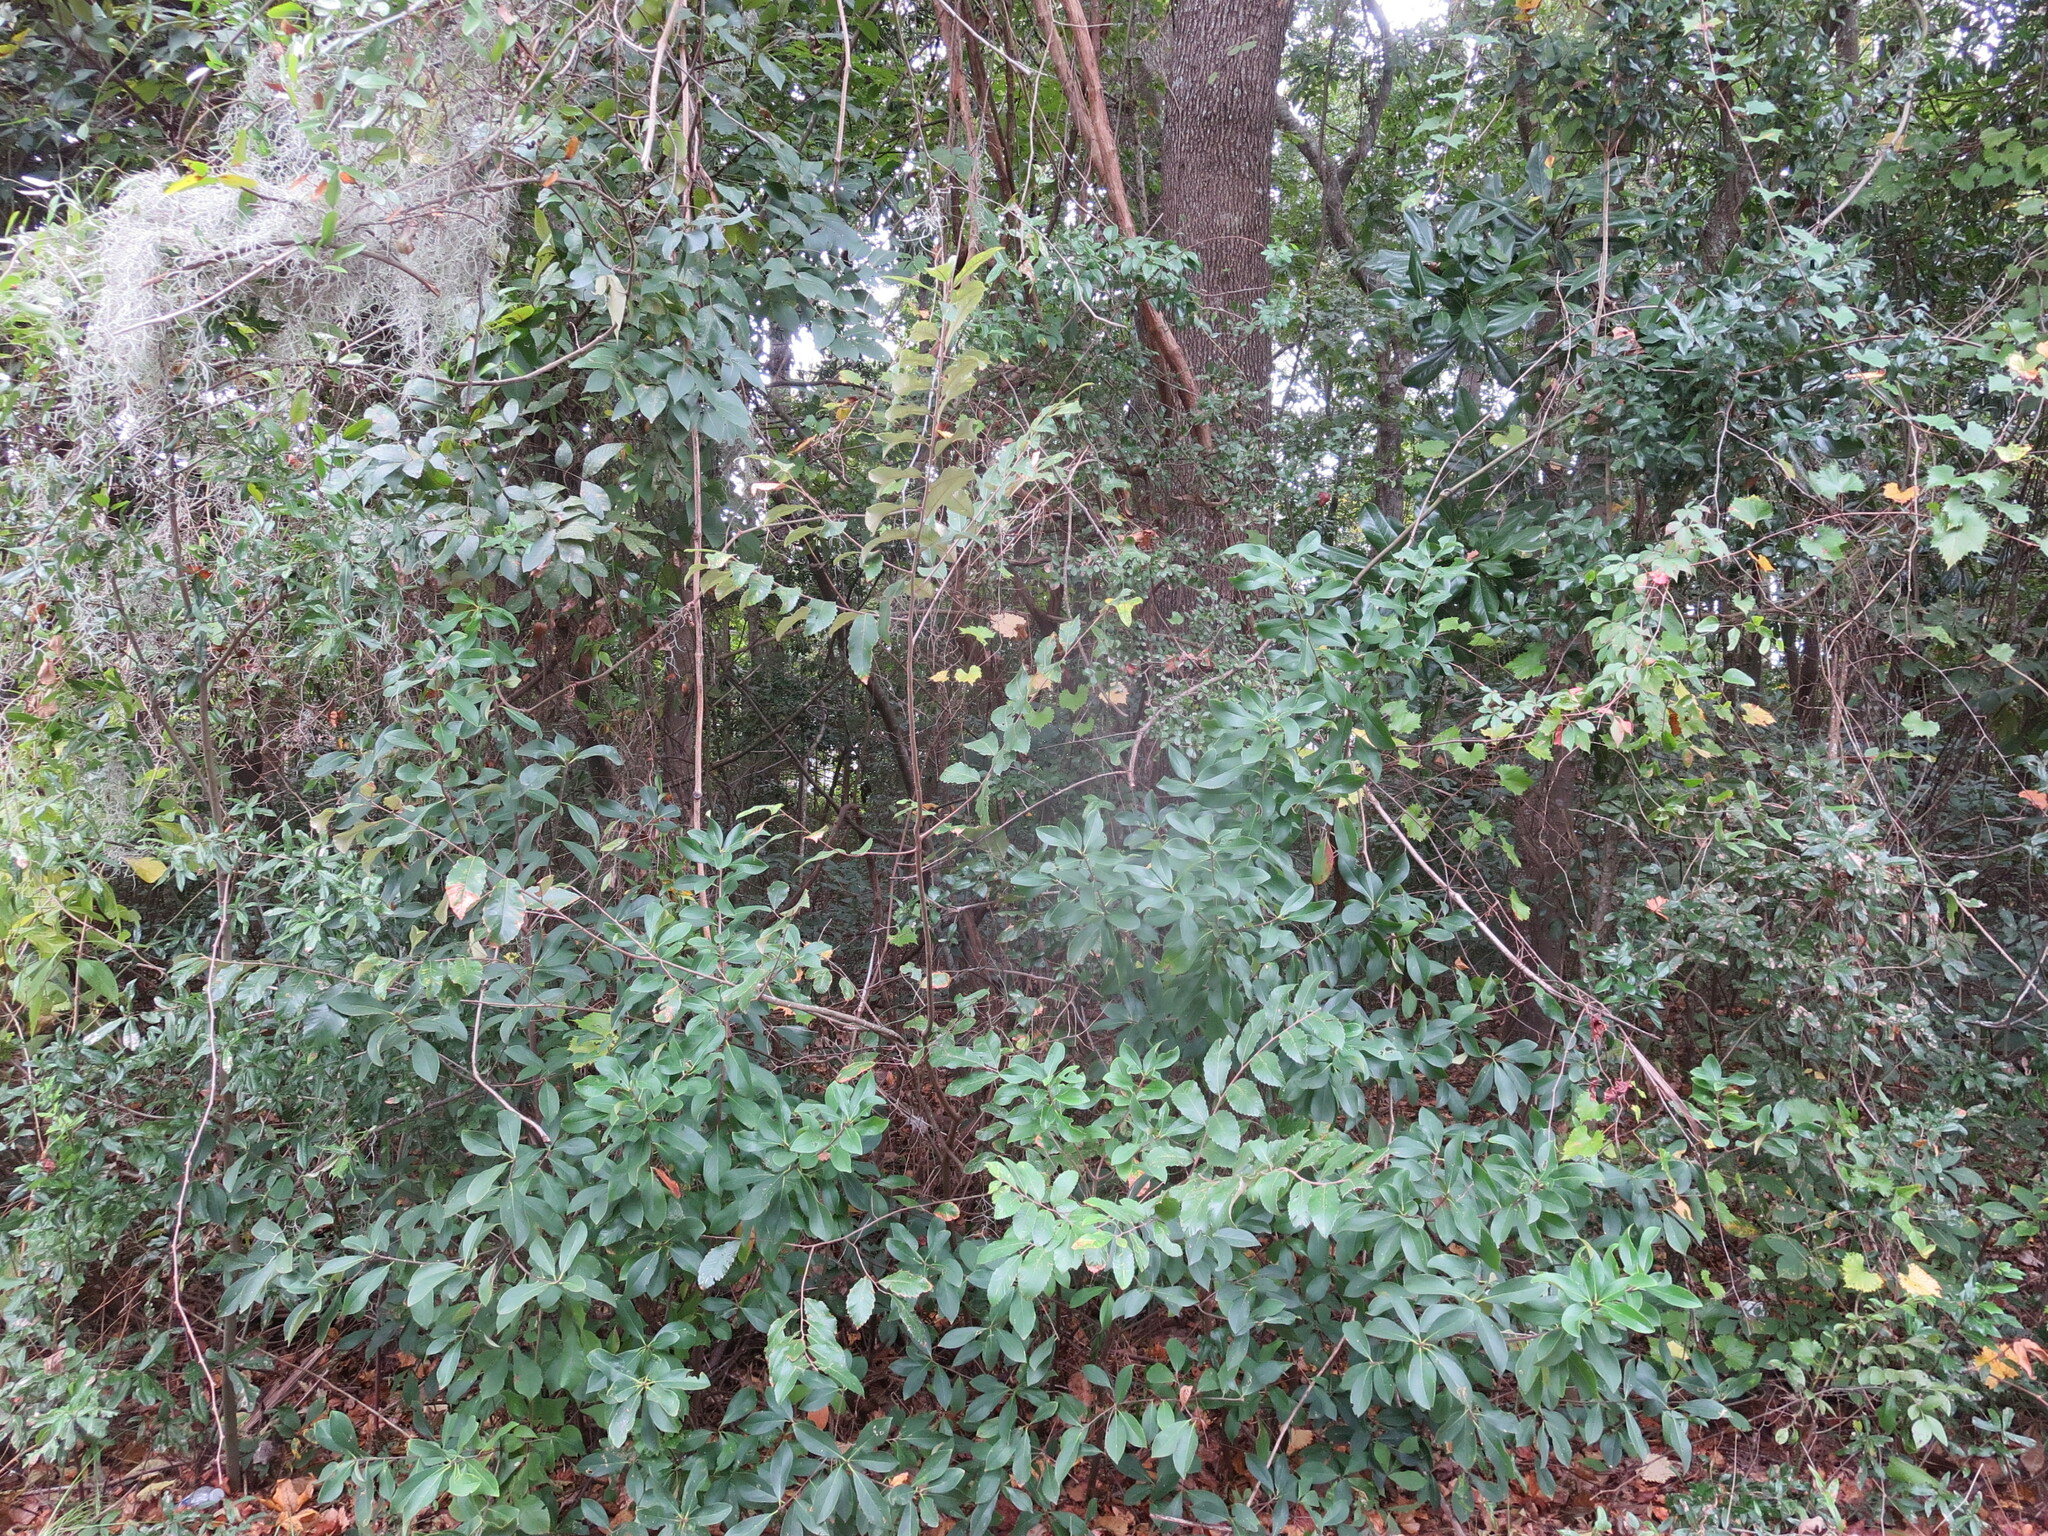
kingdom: Plantae
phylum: Tracheophyta
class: Magnoliopsida
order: Fagales
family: Fagaceae
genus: Castanea
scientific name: Castanea pumila
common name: Chinkapin
